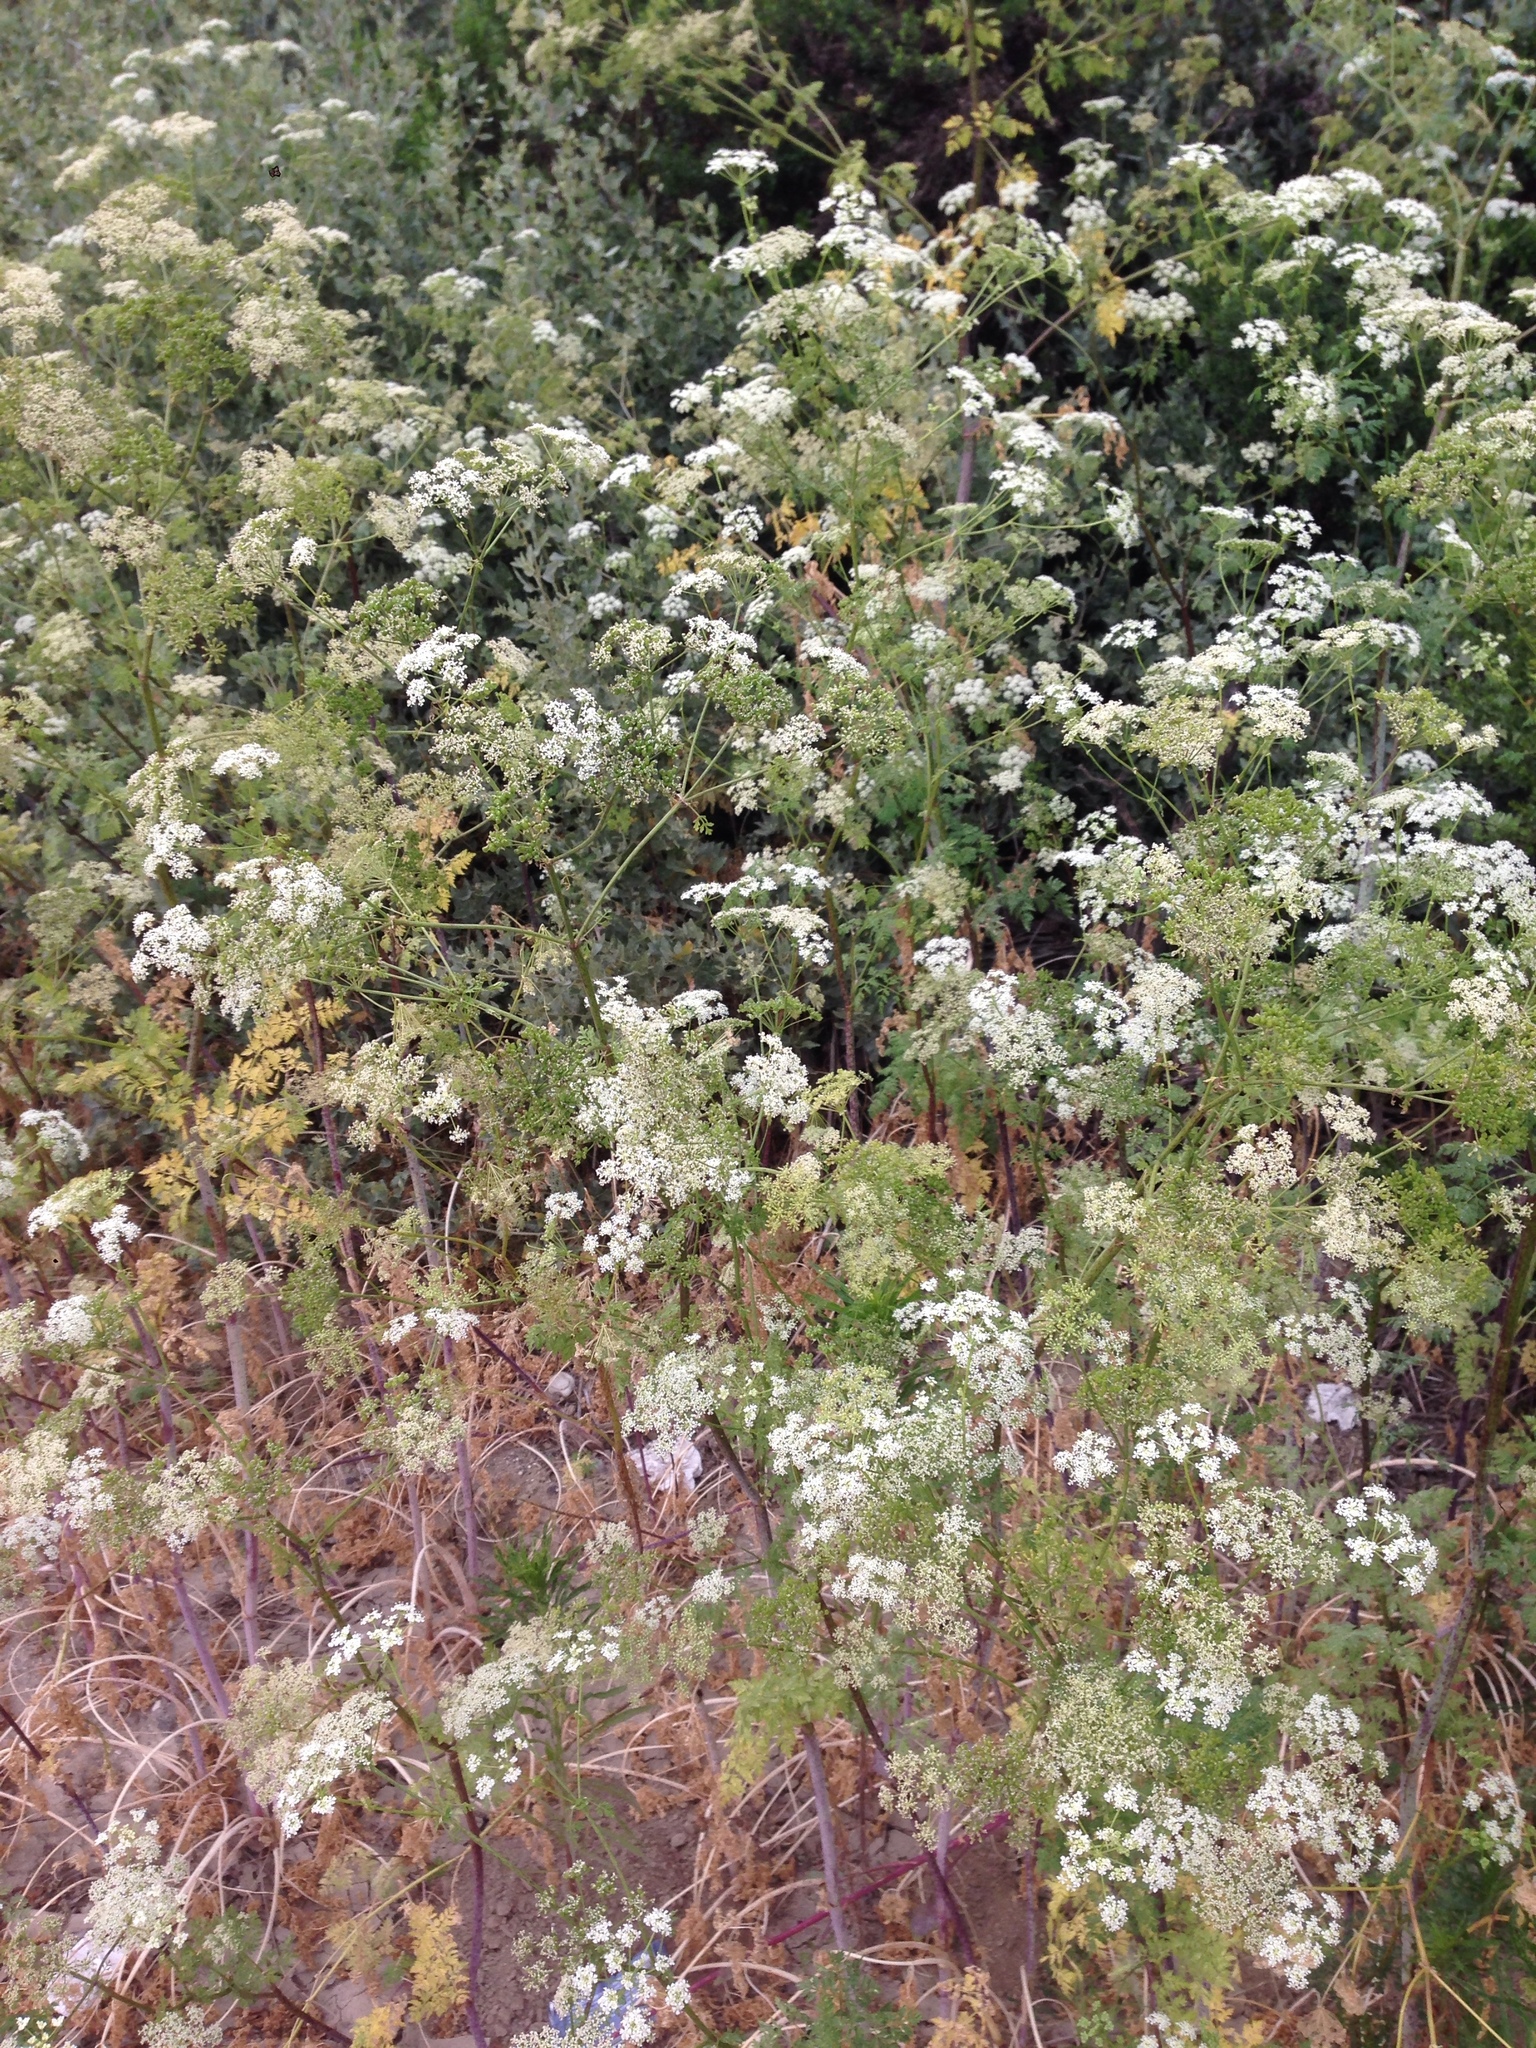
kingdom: Plantae
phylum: Tracheophyta
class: Magnoliopsida
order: Apiales
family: Apiaceae
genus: Conium
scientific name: Conium maculatum
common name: Hemlock
